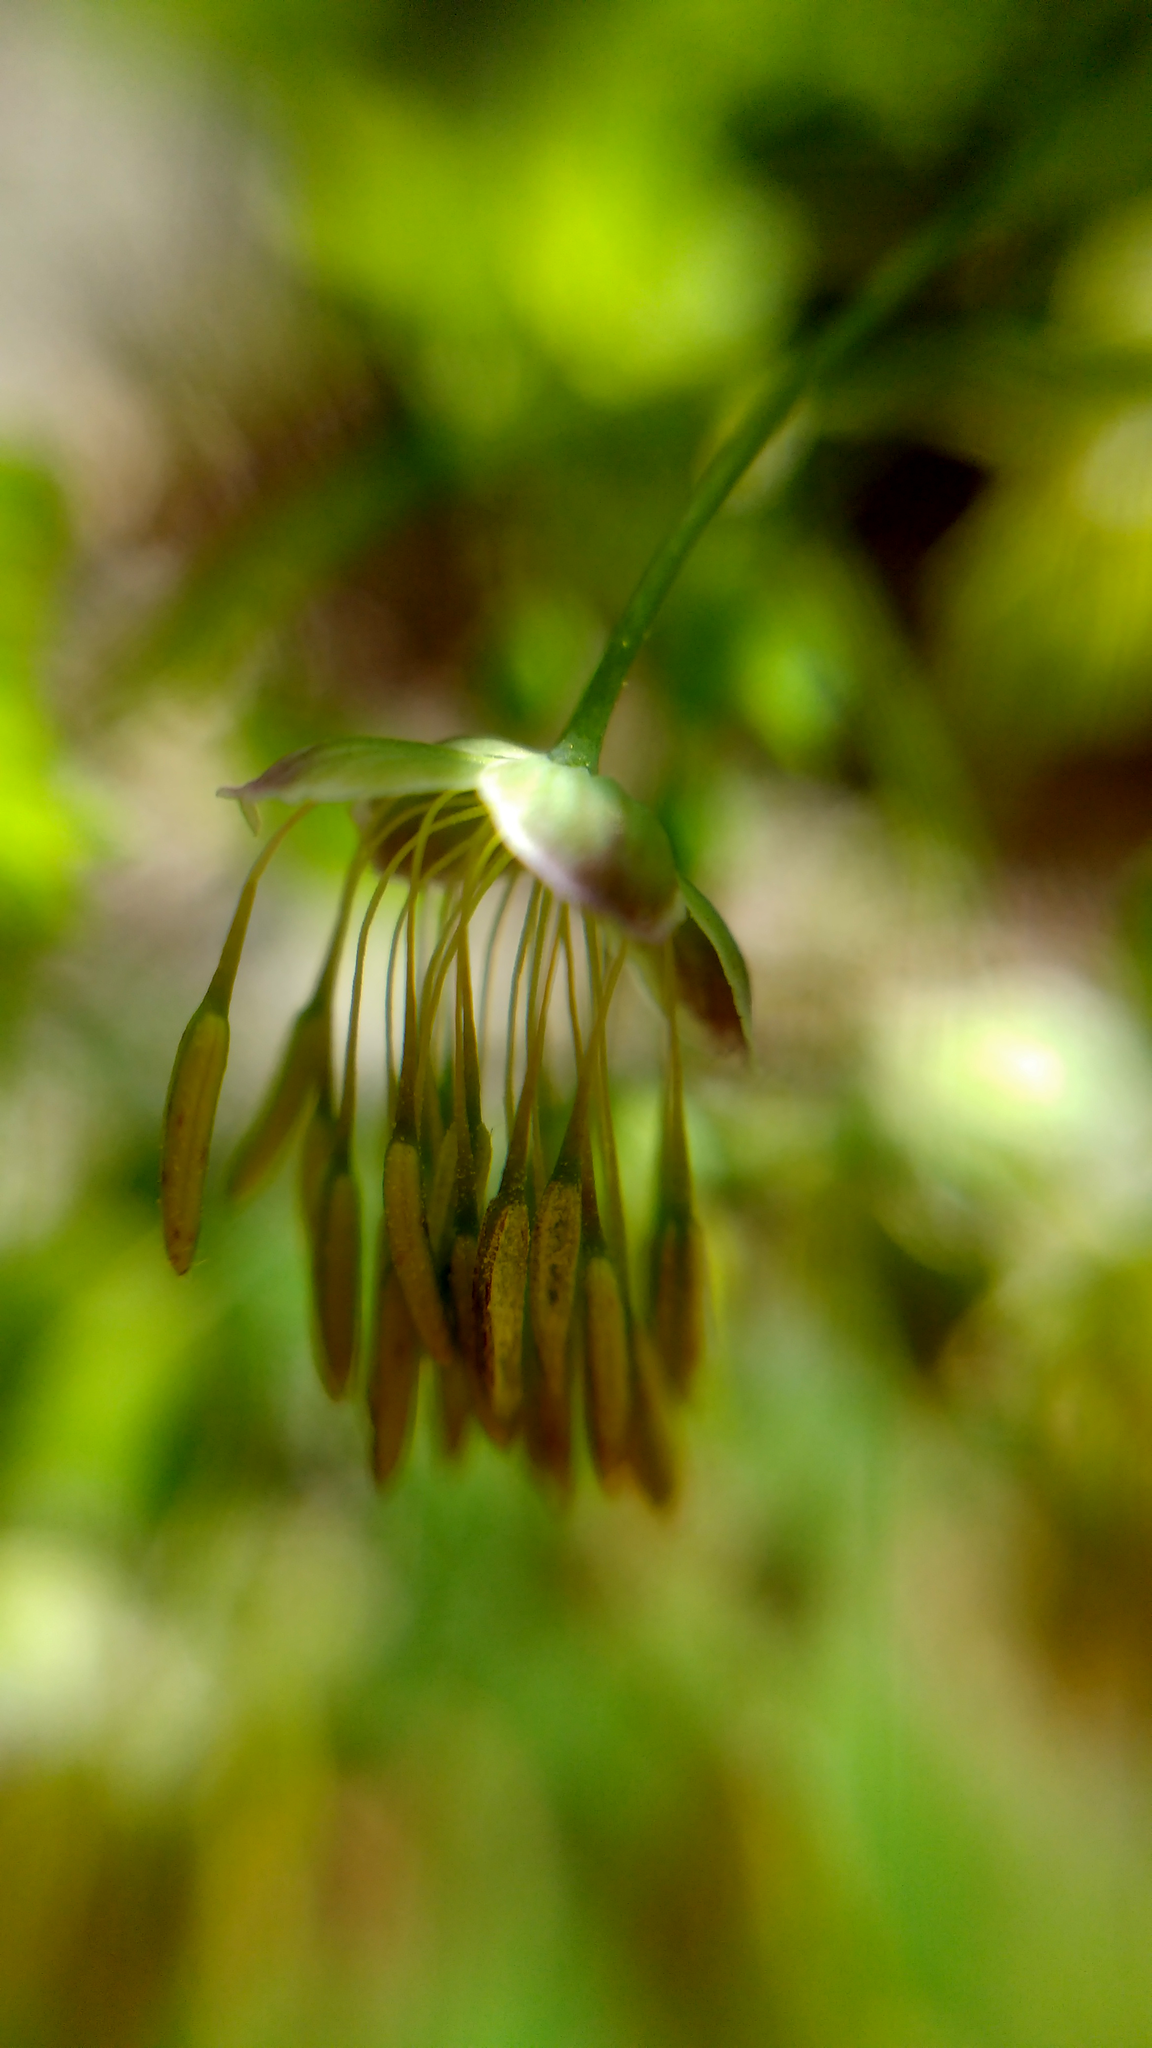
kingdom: Plantae
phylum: Tracheophyta
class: Magnoliopsida
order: Ranunculales
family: Ranunculaceae
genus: Thalictrum
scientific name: Thalictrum dioicum
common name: Early meadow-rue
